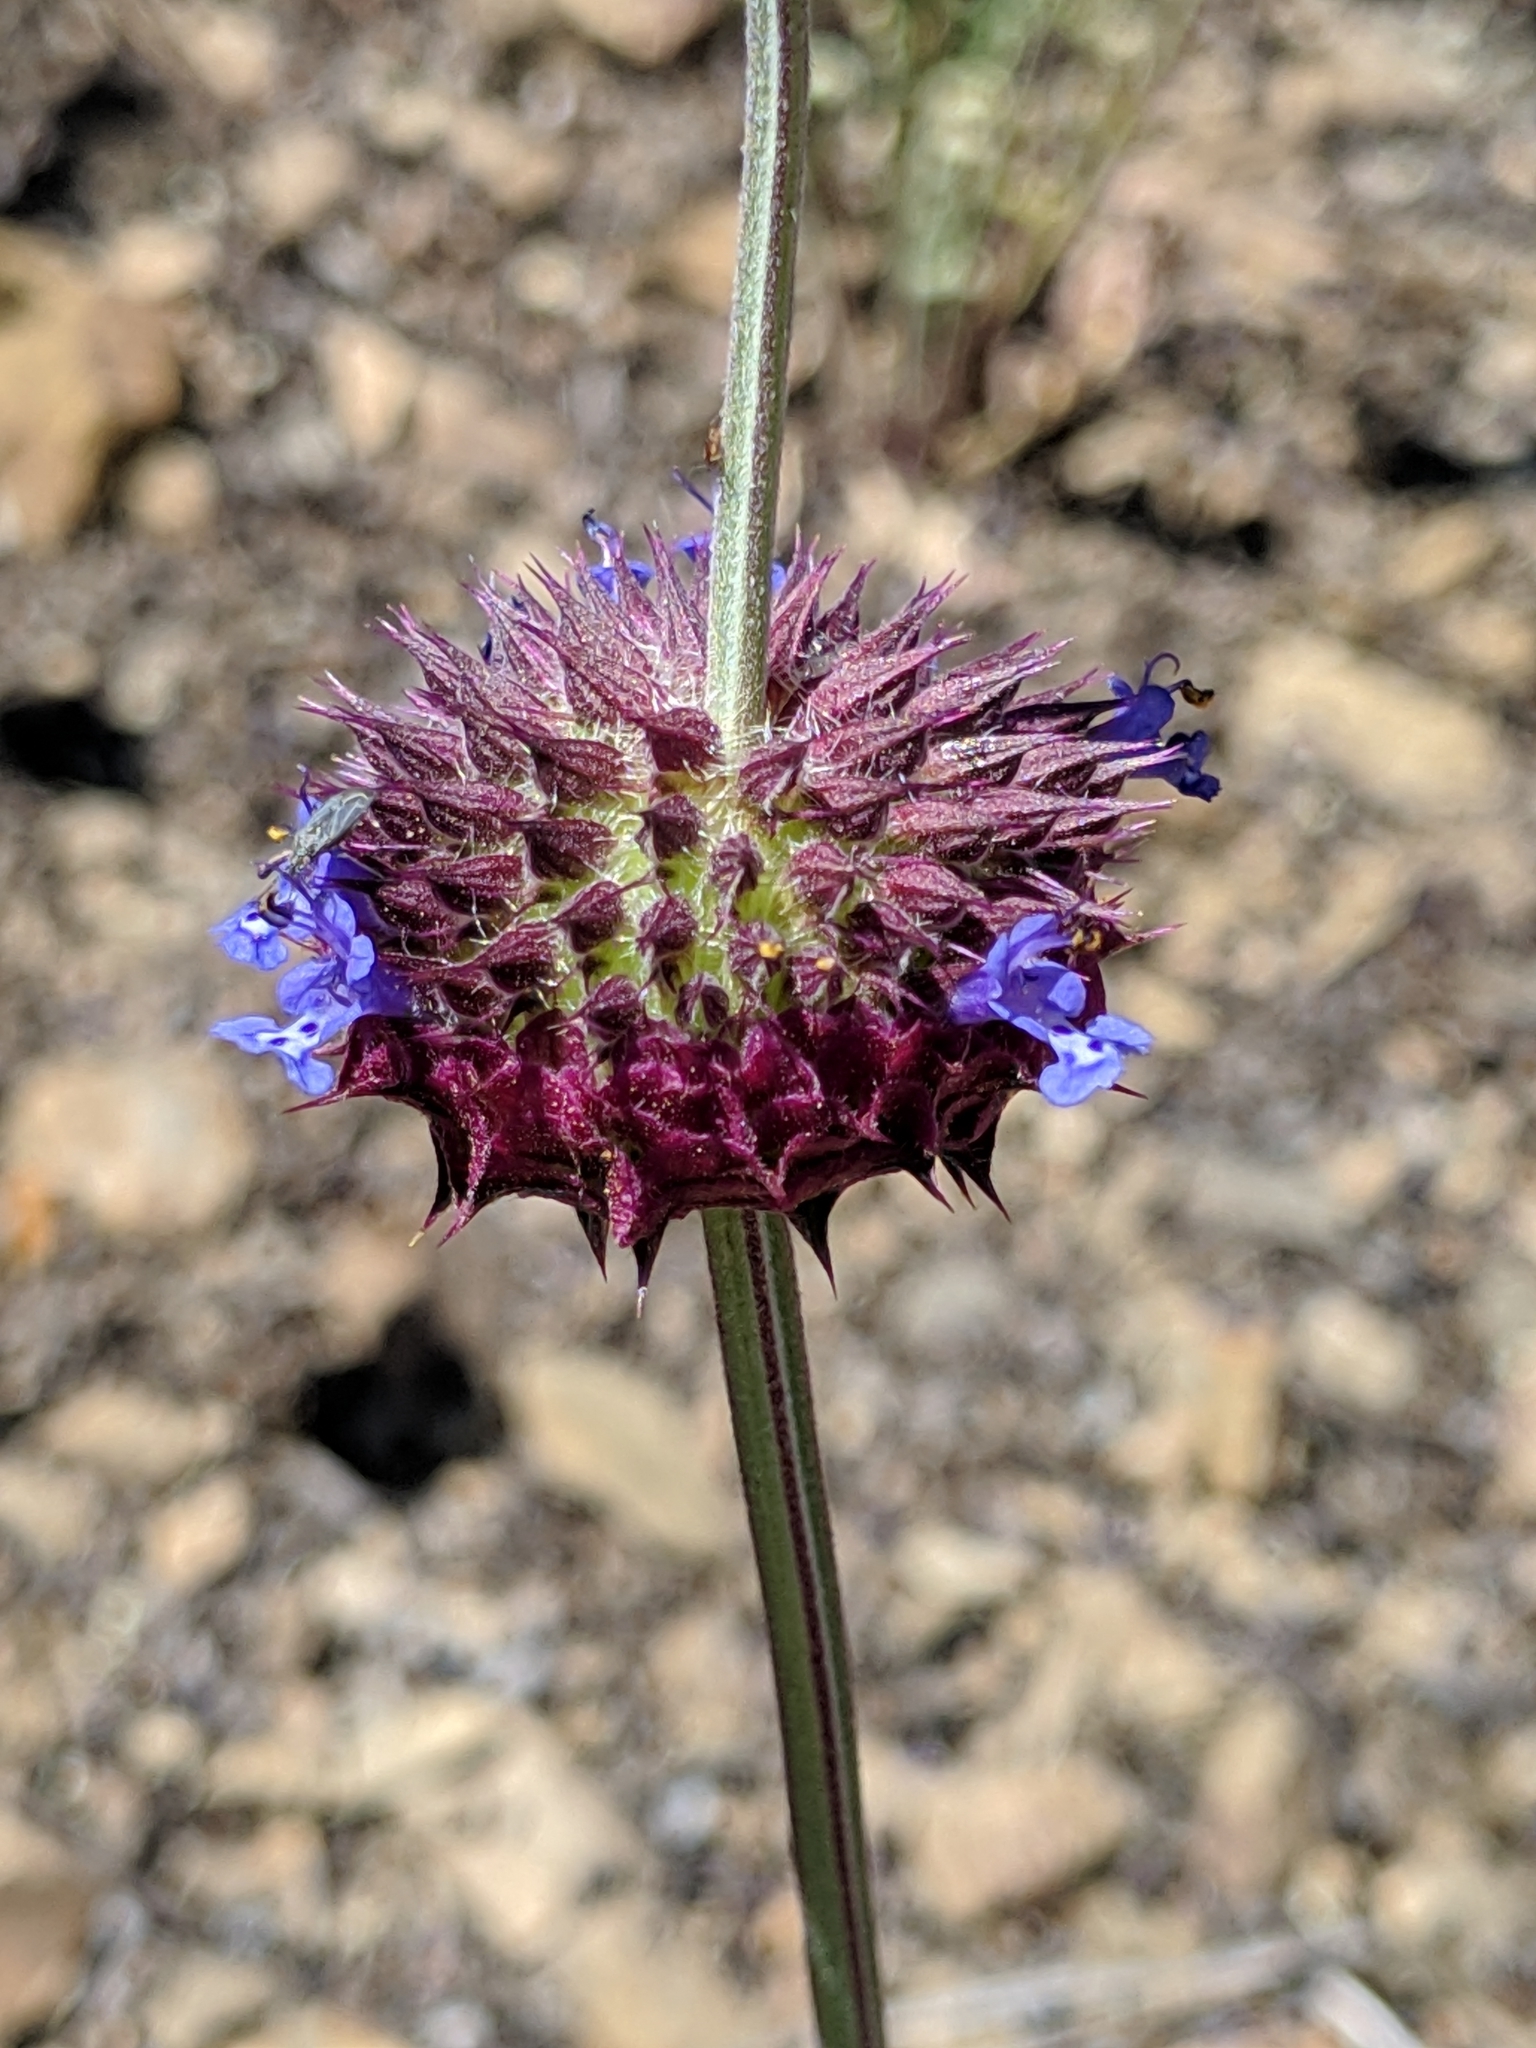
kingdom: Plantae
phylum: Tracheophyta
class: Magnoliopsida
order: Lamiales
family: Lamiaceae
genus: Salvia
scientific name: Salvia columbariae
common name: Chia
